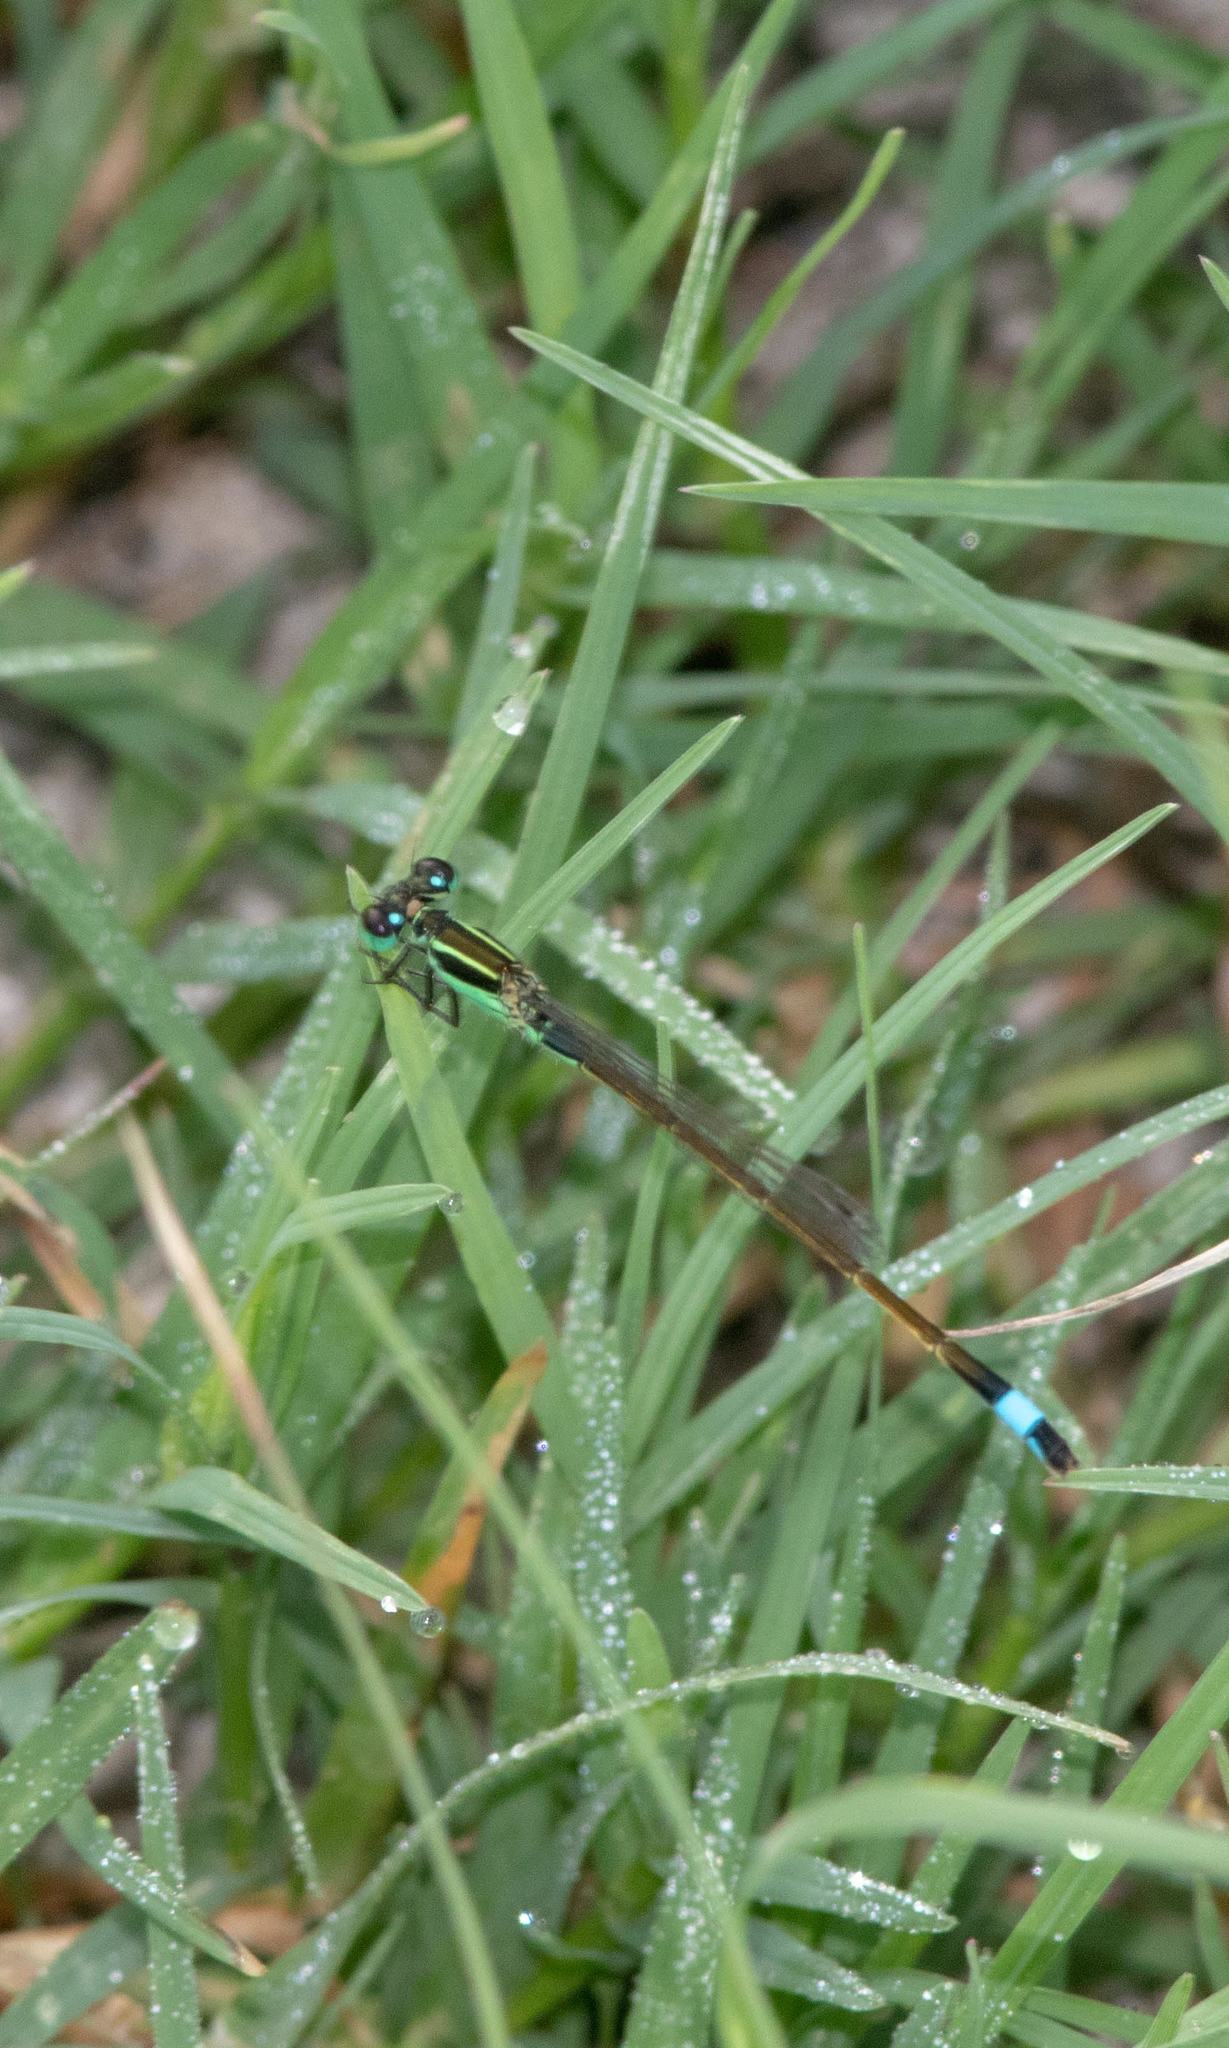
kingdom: Animalia
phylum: Arthropoda
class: Insecta
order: Odonata
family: Coenagrionidae
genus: Ischnura
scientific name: Ischnura ramburii
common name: Rambur's forktail
